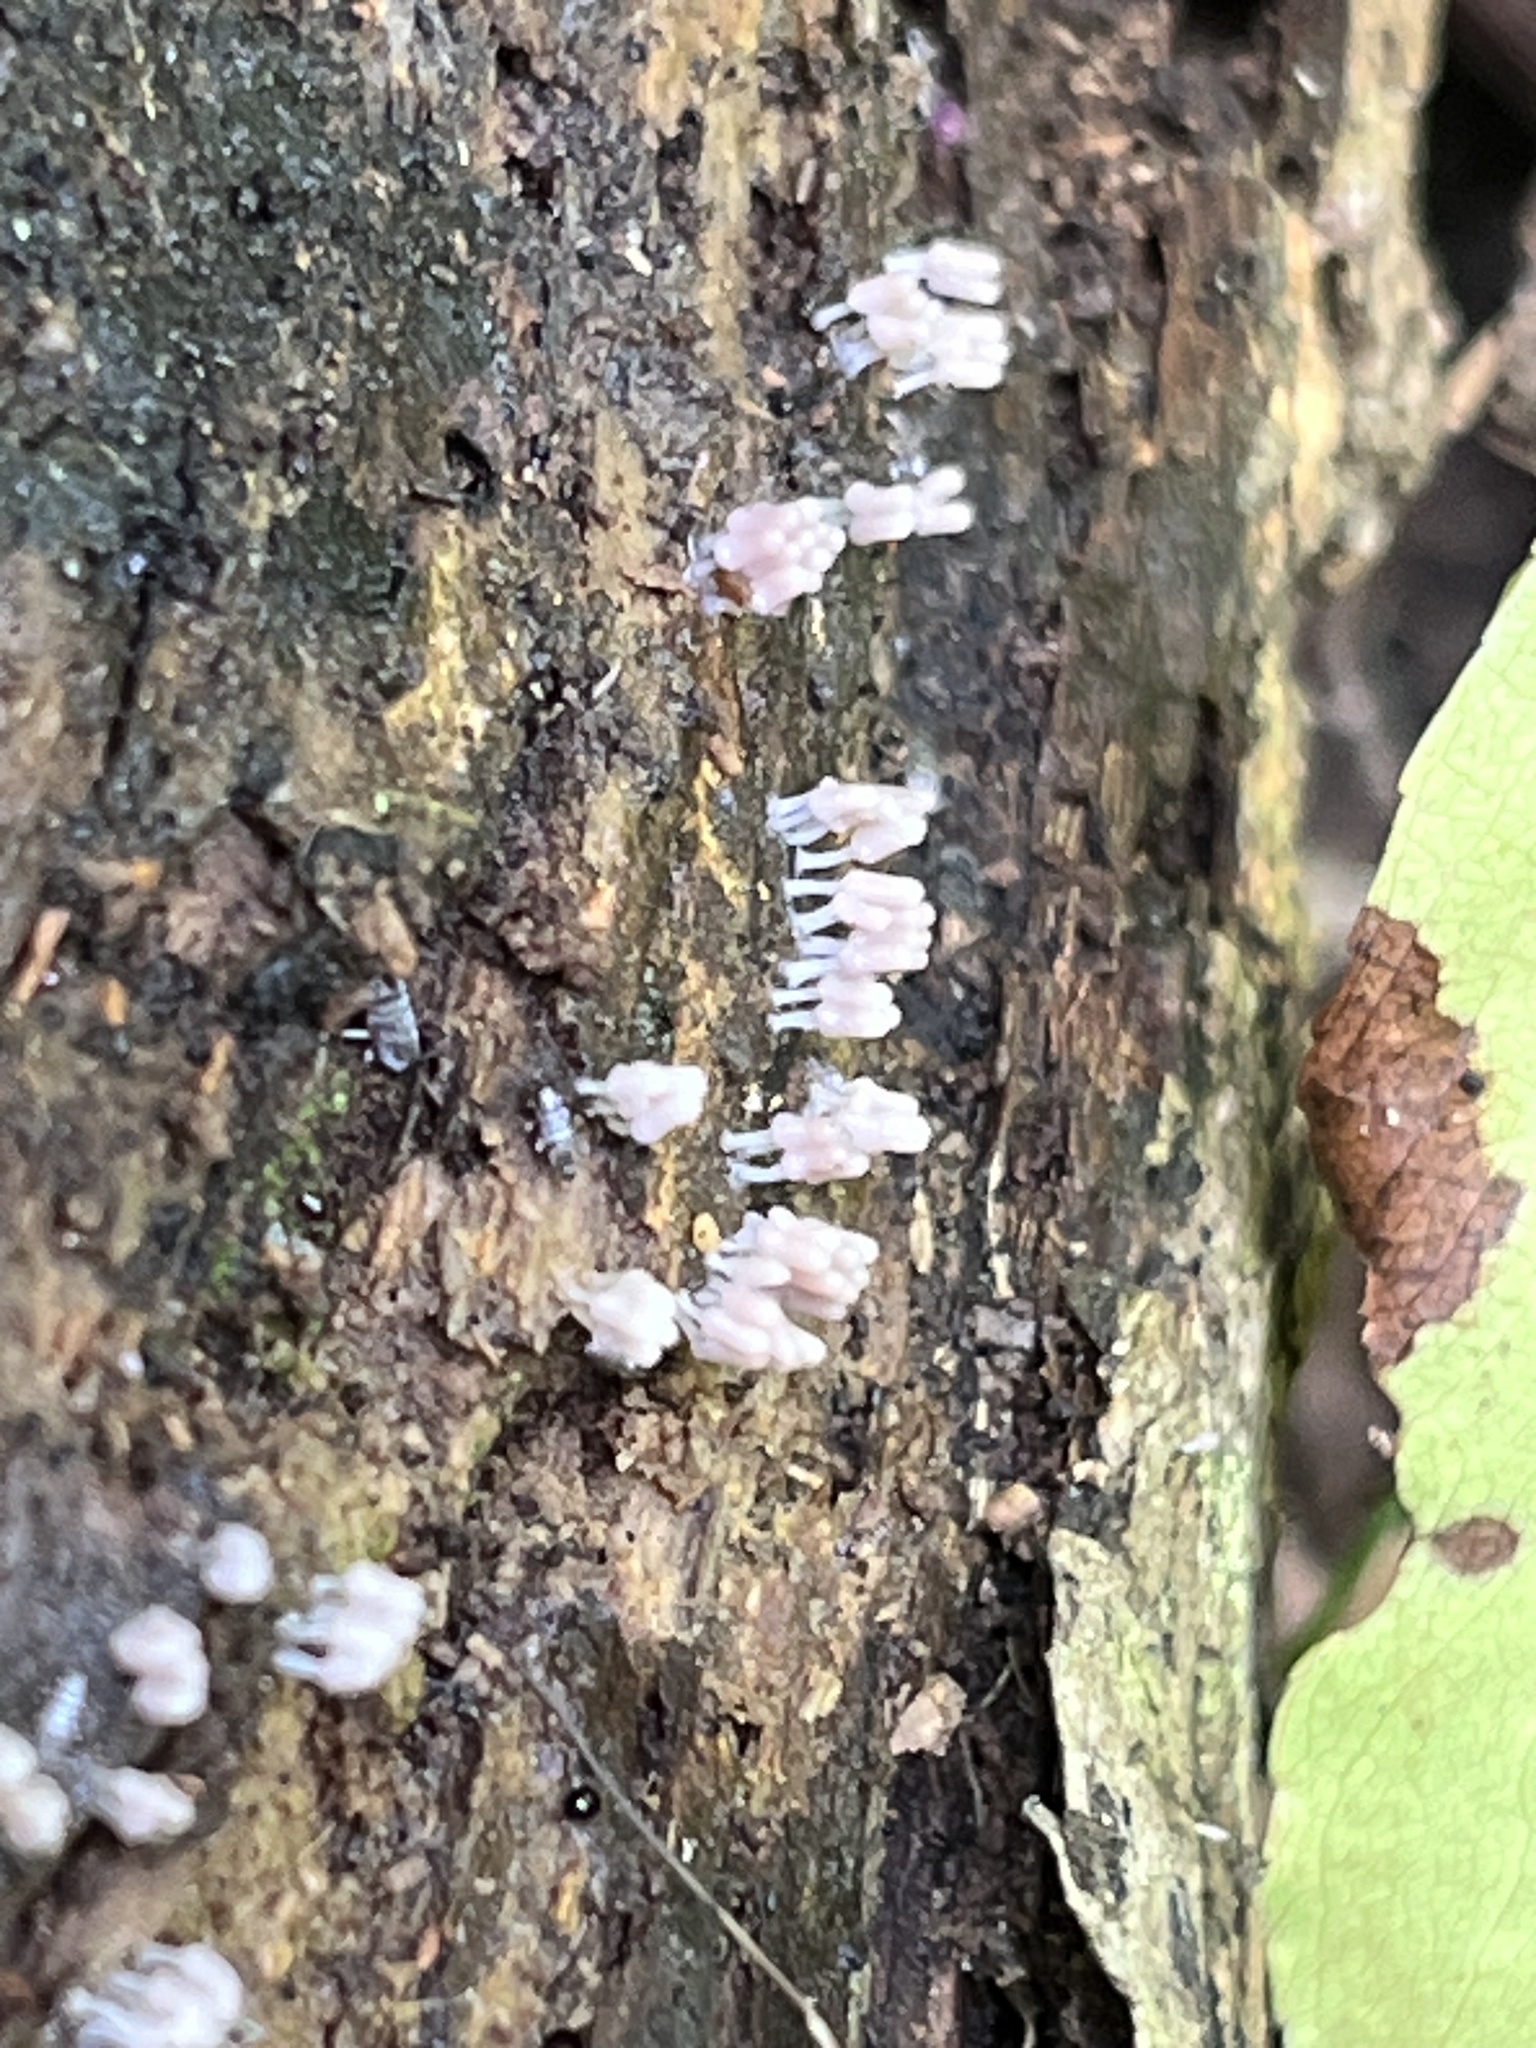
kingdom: Protozoa
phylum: Mycetozoa
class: Myxomycetes
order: Trichiales
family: Arcyriaceae
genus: Arcyria
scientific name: Arcyria cinerea
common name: White carnival candy slime mold
